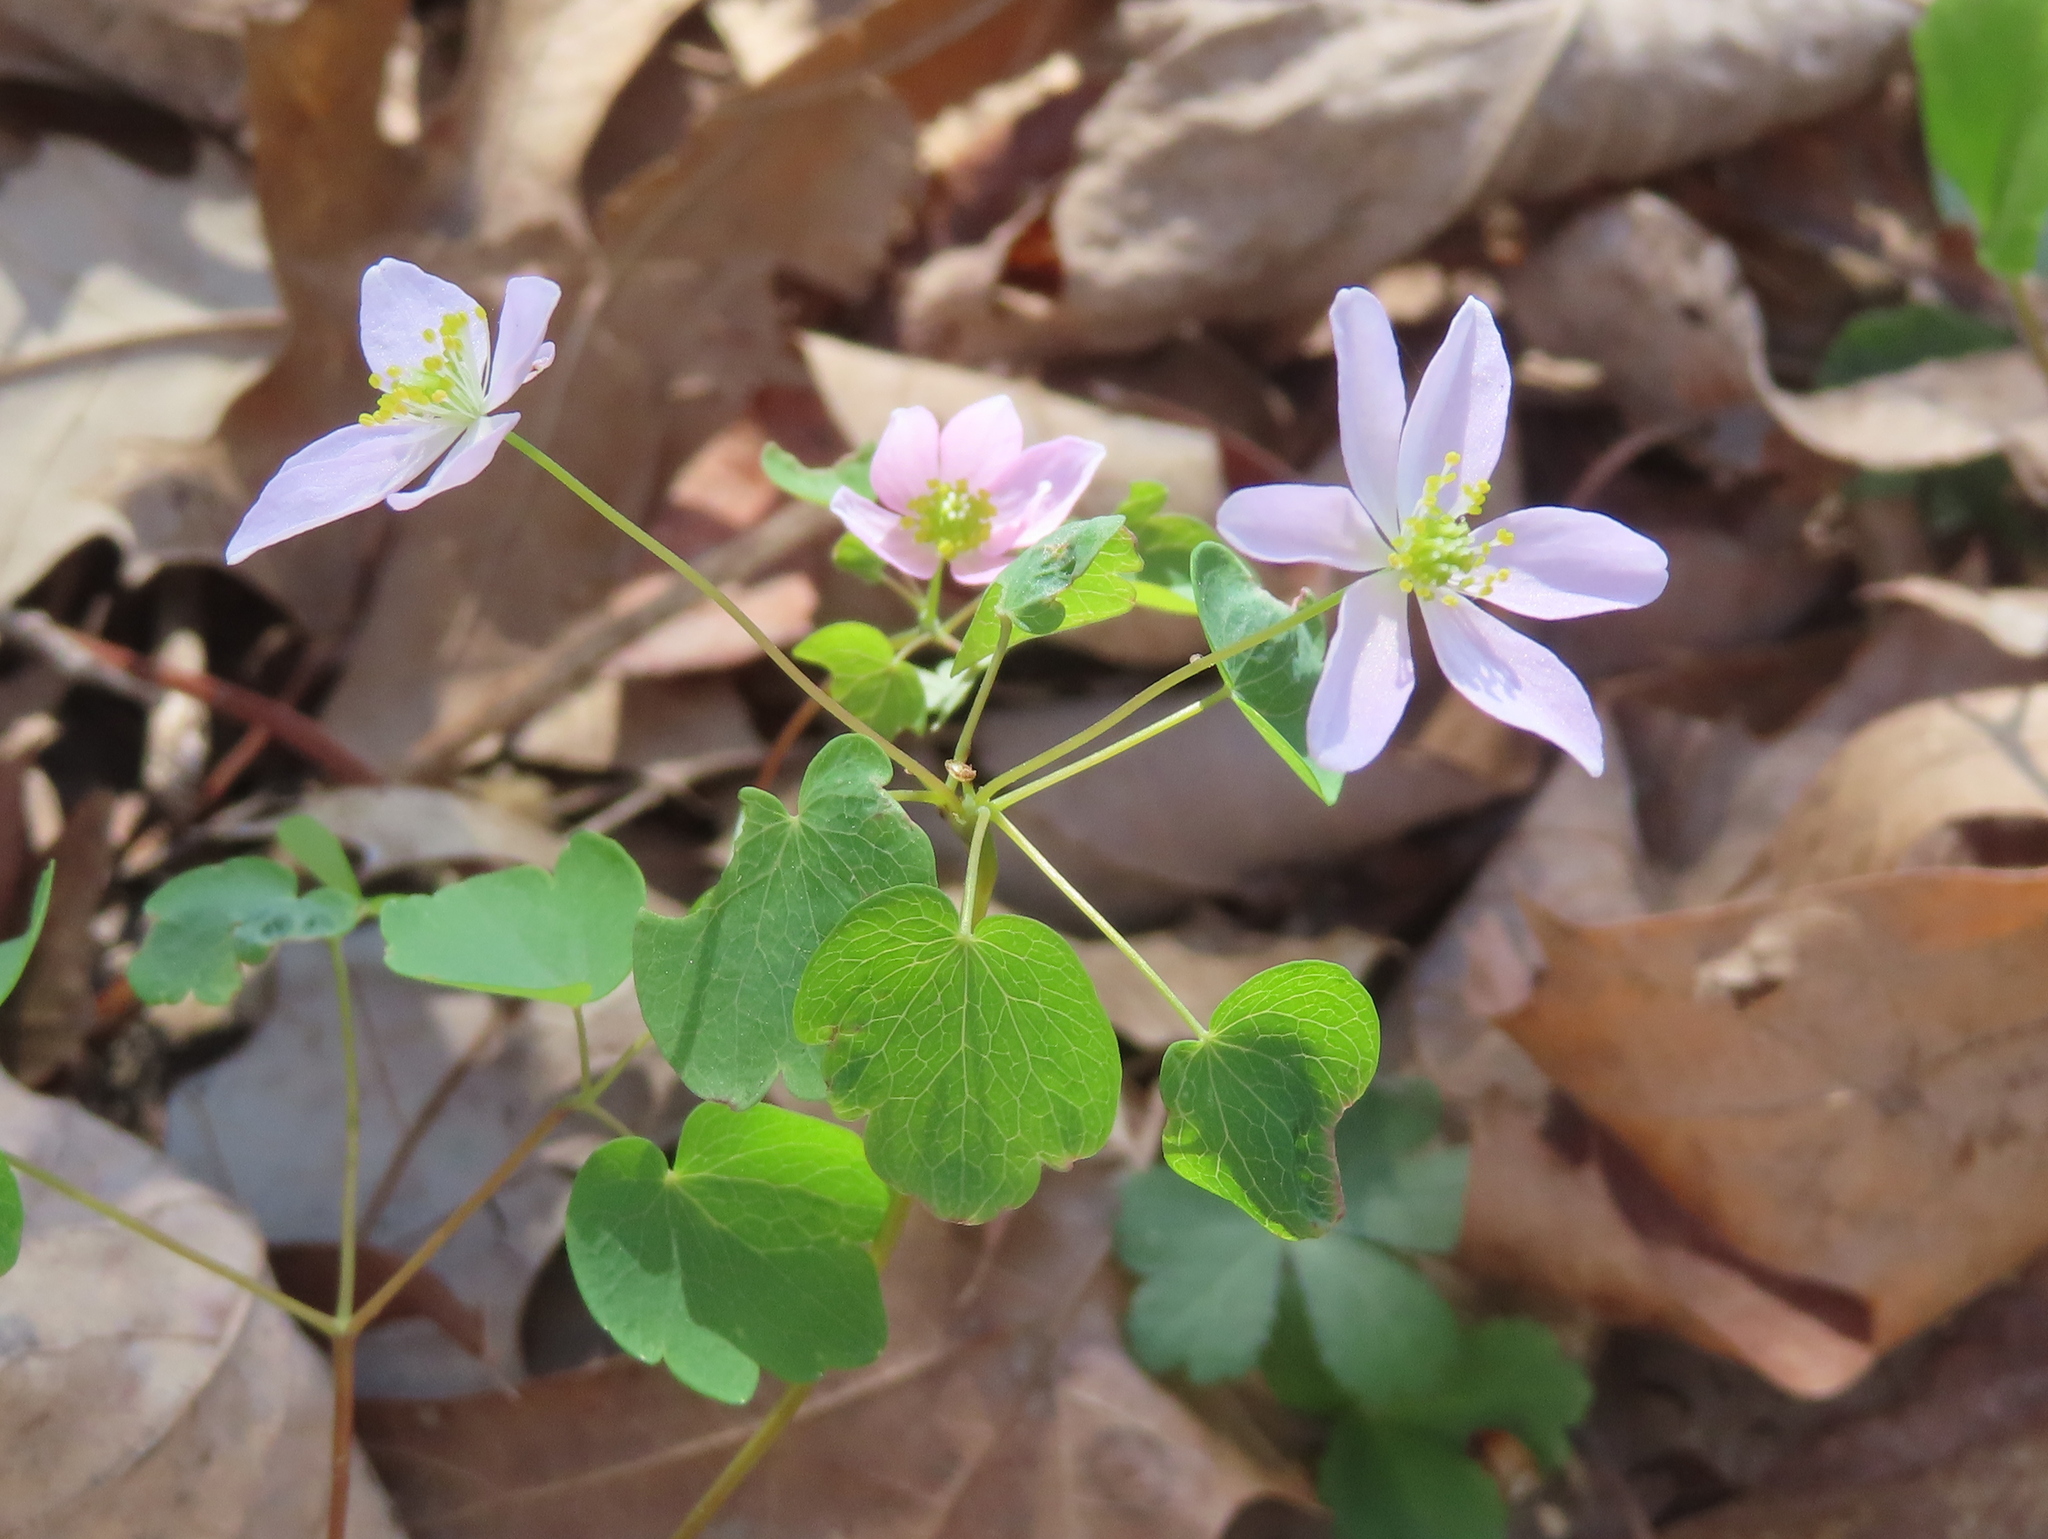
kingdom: Plantae
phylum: Tracheophyta
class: Magnoliopsida
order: Ranunculales
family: Ranunculaceae
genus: Thalictrum
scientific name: Thalictrum thalictroides
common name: Rue-anemone
